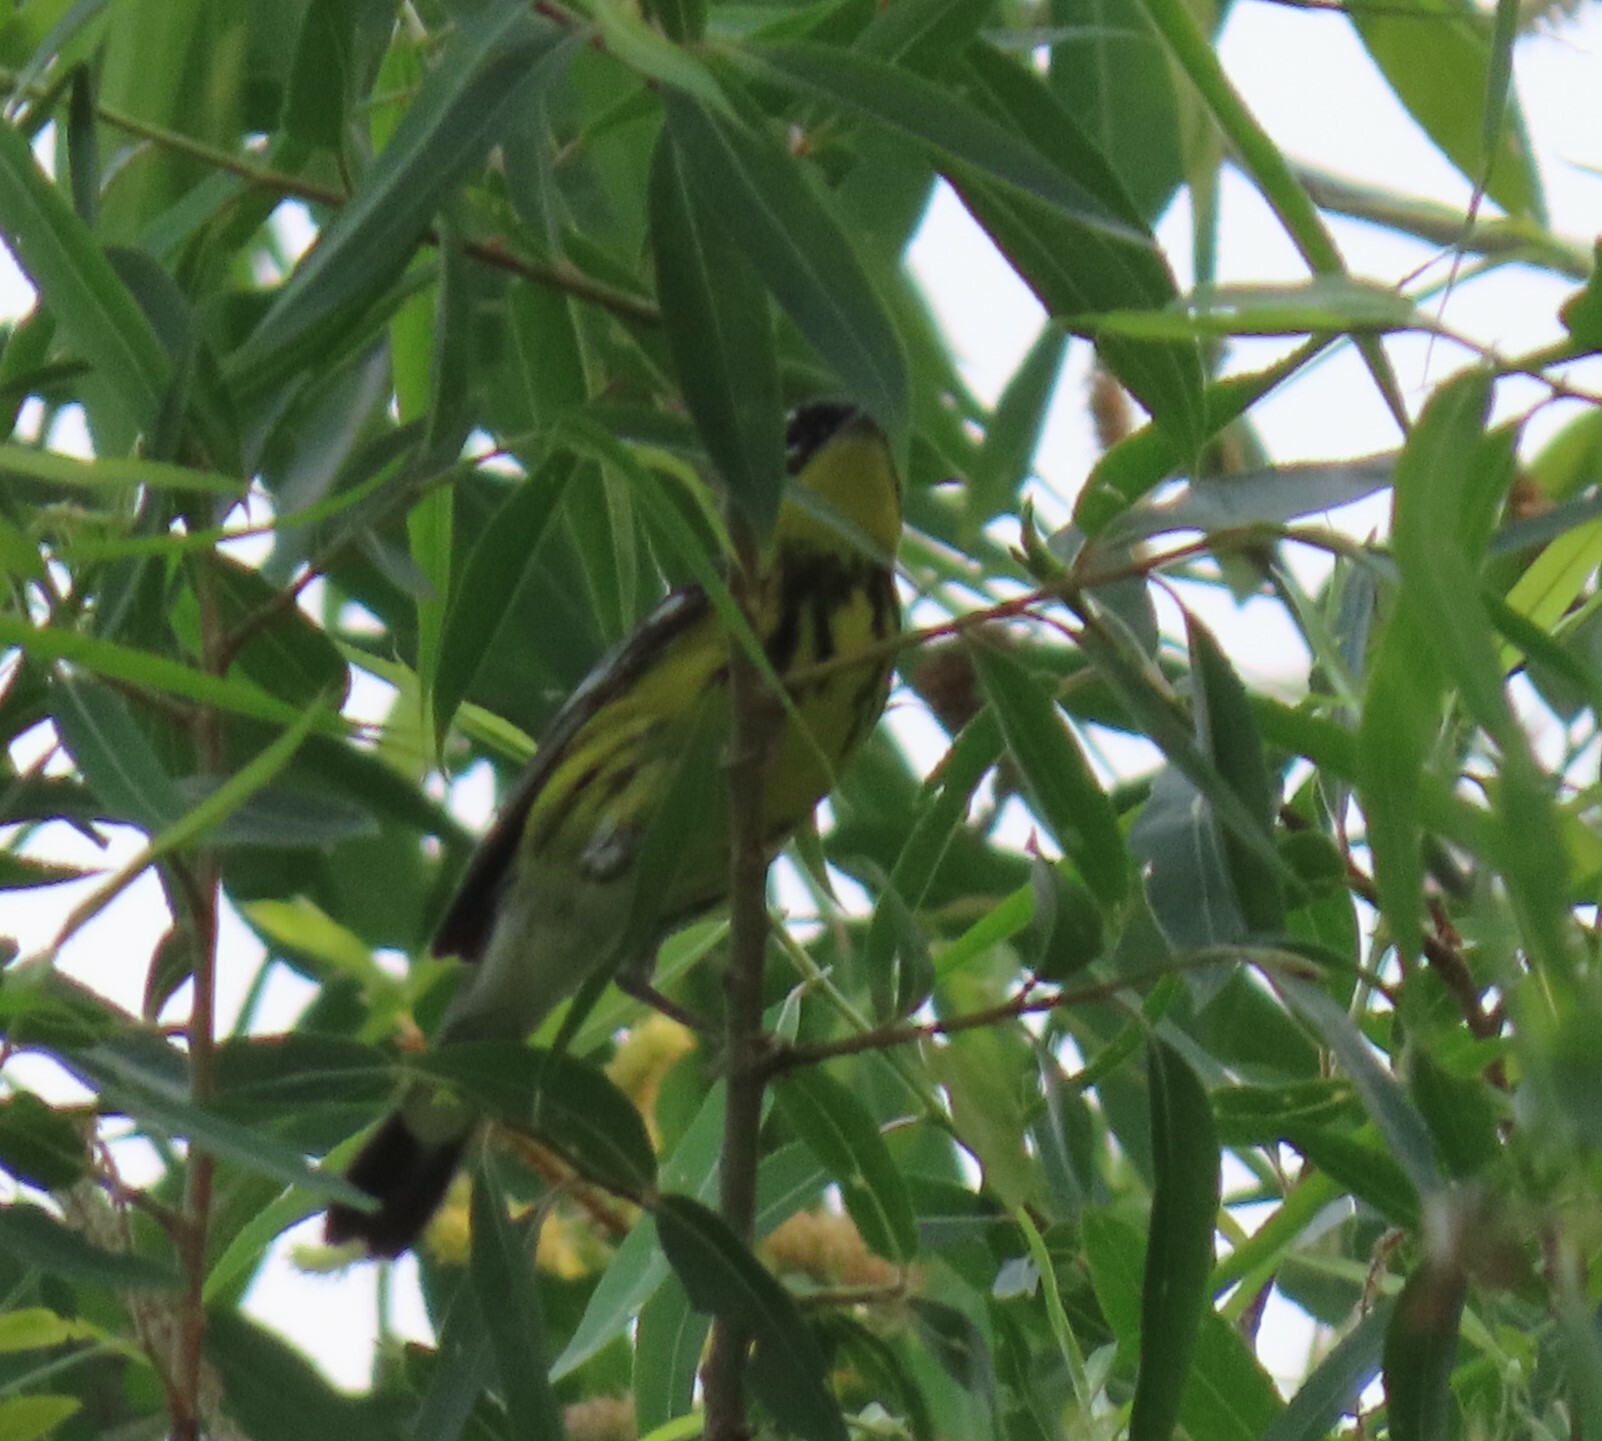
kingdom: Animalia
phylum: Chordata
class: Aves
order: Passeriformes
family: Parulidae
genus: Setophaga
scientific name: Setophaga magnolia
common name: Magnolia warbler
